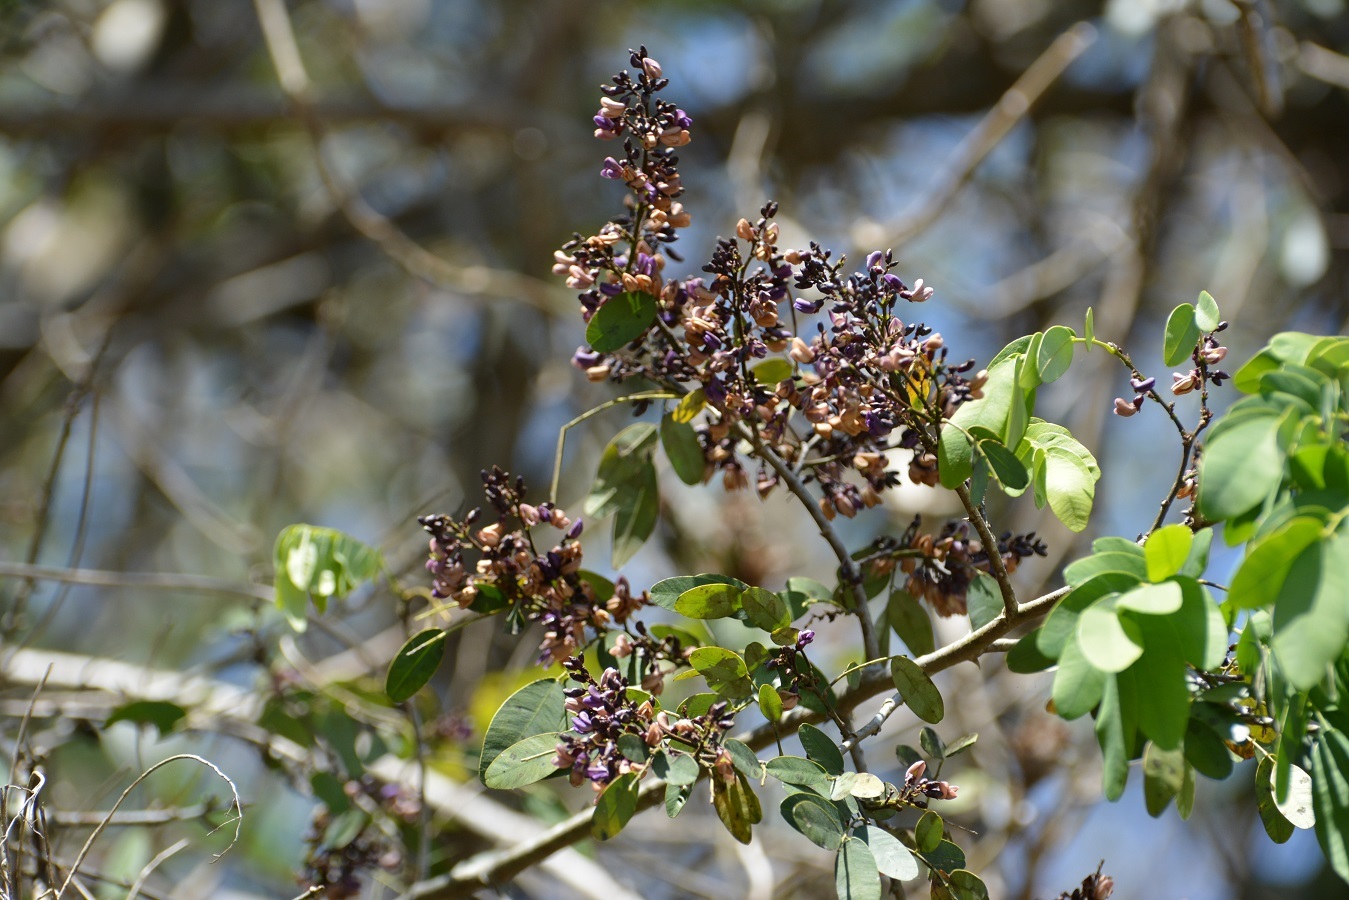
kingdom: Plantae
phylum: Tracheophyta
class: Magnoliopsida
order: Fabales
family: Fabaceae
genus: Machaerium
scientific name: Machaerium riparium
